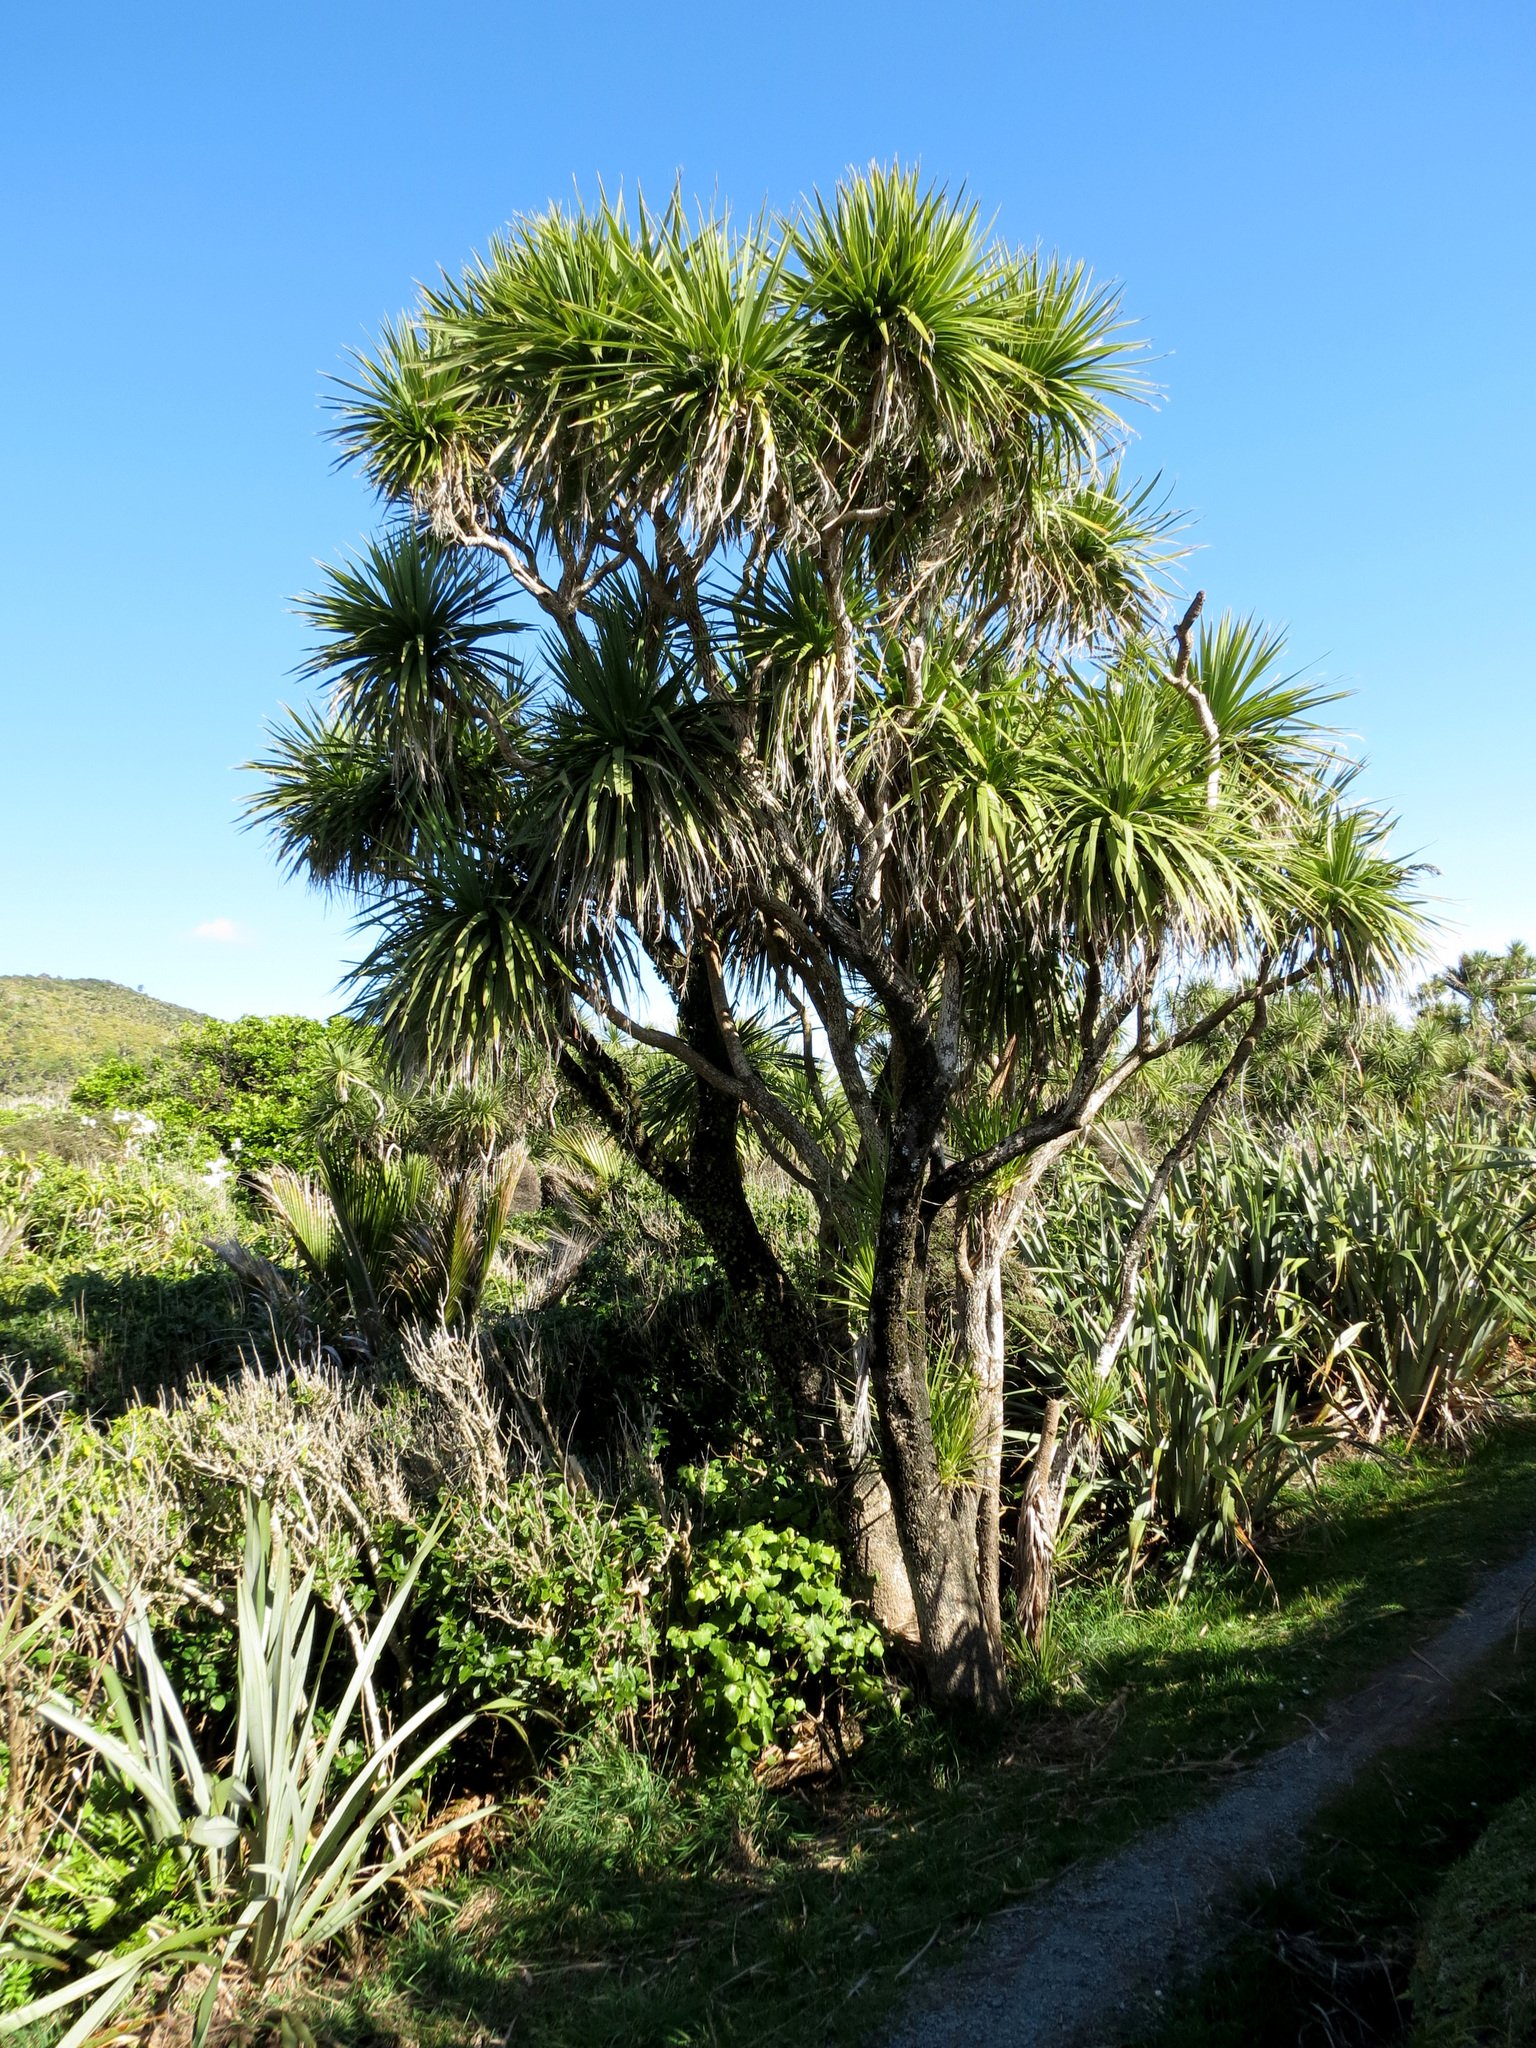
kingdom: Plantae
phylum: Tracheophyta
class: Liliopsida
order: Asparagales
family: Asparagaceae
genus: Cordyline
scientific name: Cordyline australis
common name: Cabbage-palm
